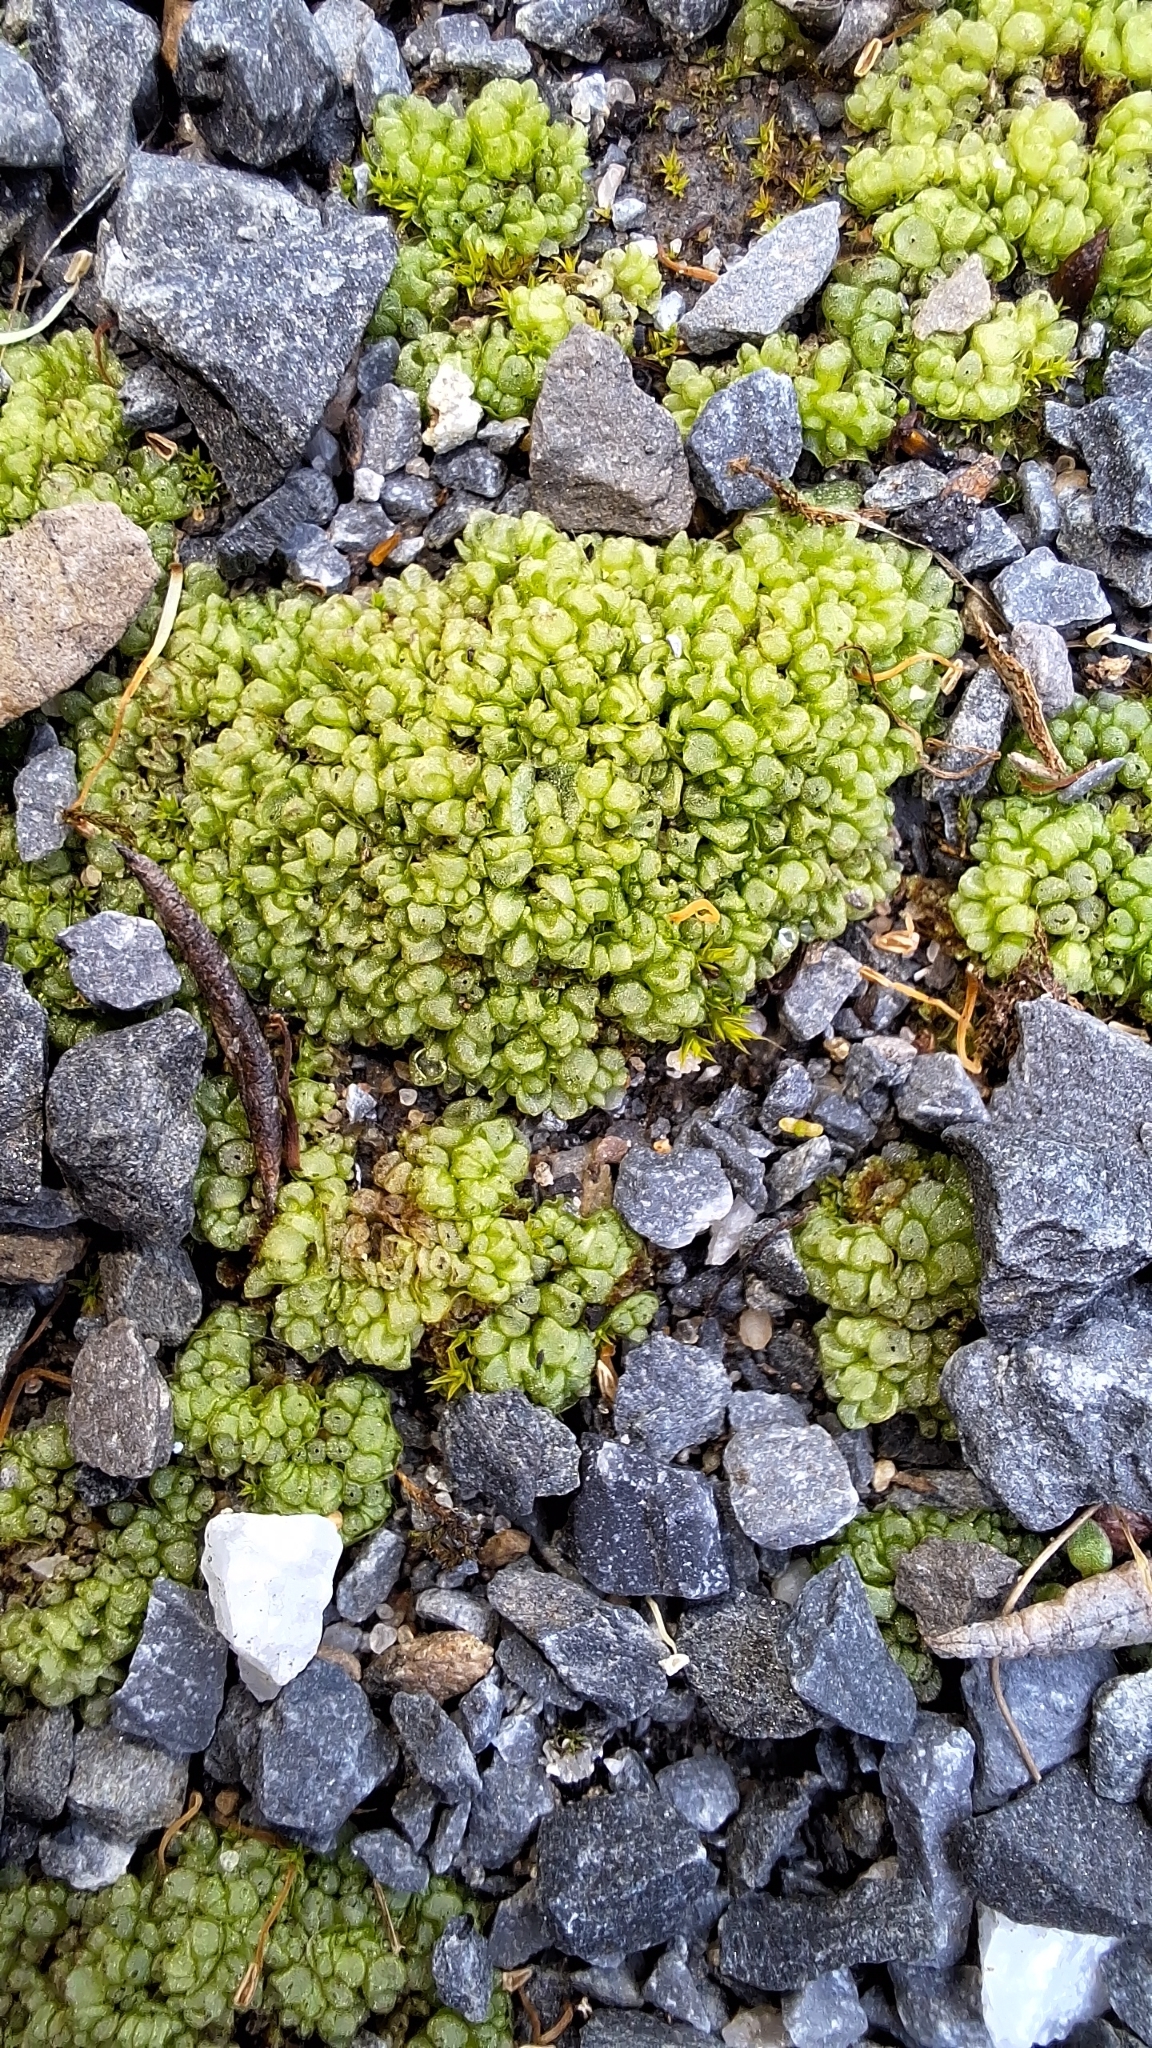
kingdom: Plantae
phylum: Marchantiophyta
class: Marchantiopsida
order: Sphaerocarpales
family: Sphaerocarpaceae
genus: Sphaerocarpos
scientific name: Sphaerocarpos texanus
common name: Texas balloonwort
